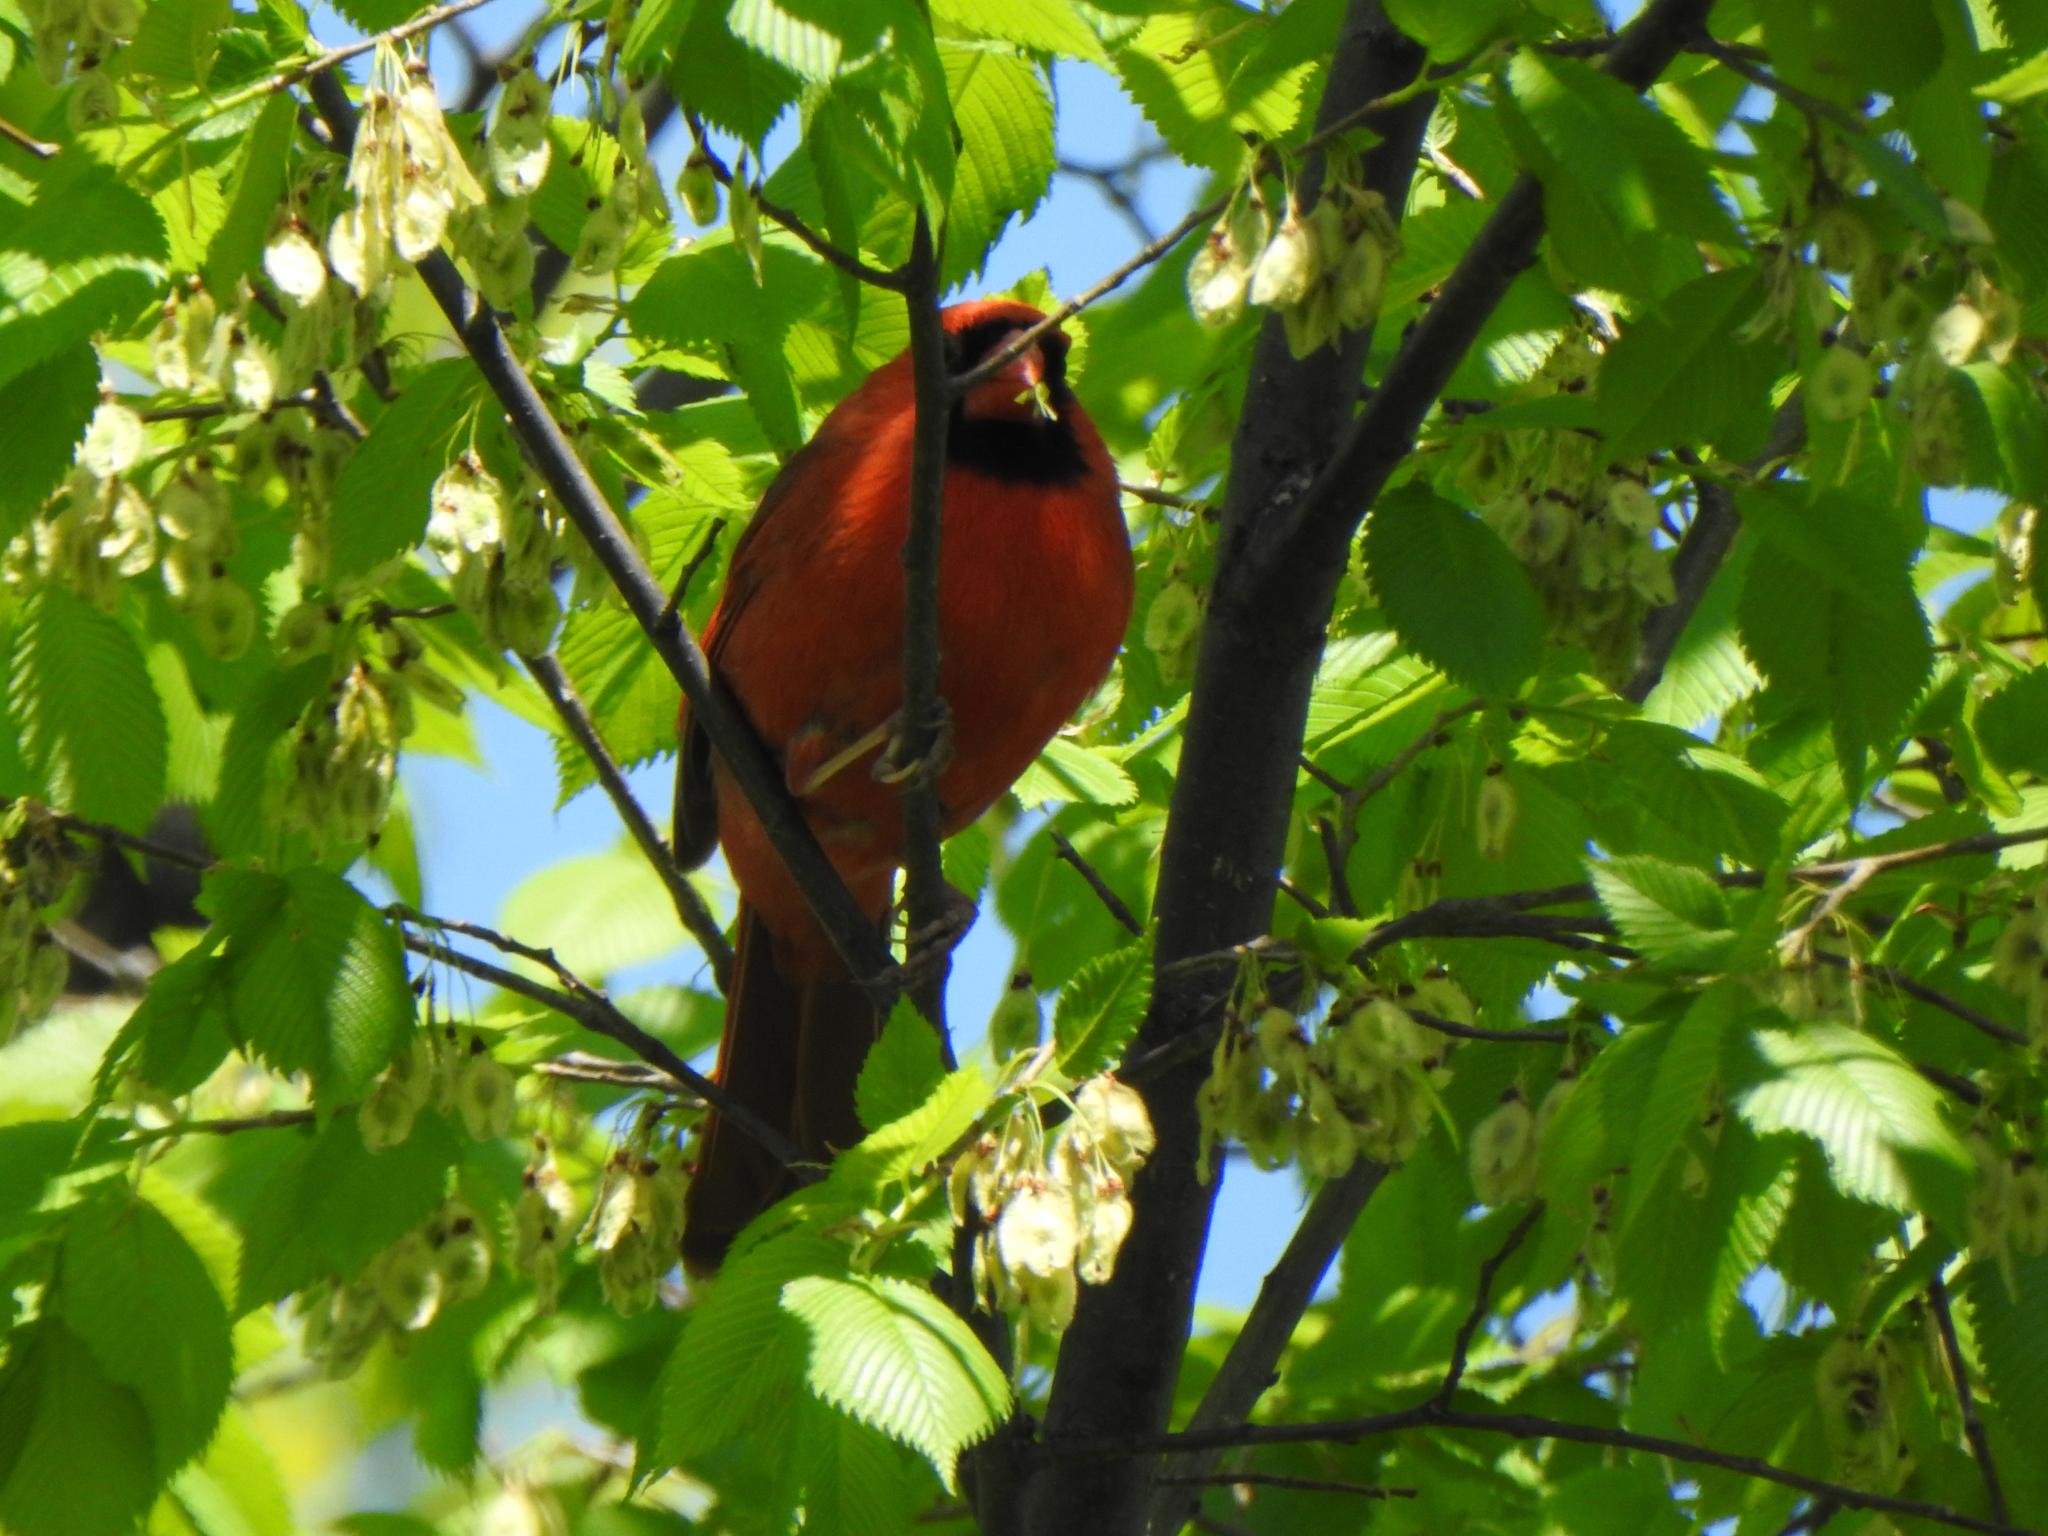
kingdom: Animalia
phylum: Chordata
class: Aves
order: Passeriformes
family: Cardinalidae
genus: Cardinalis
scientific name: Cardinalis cardinalis
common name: Northern cardinal
